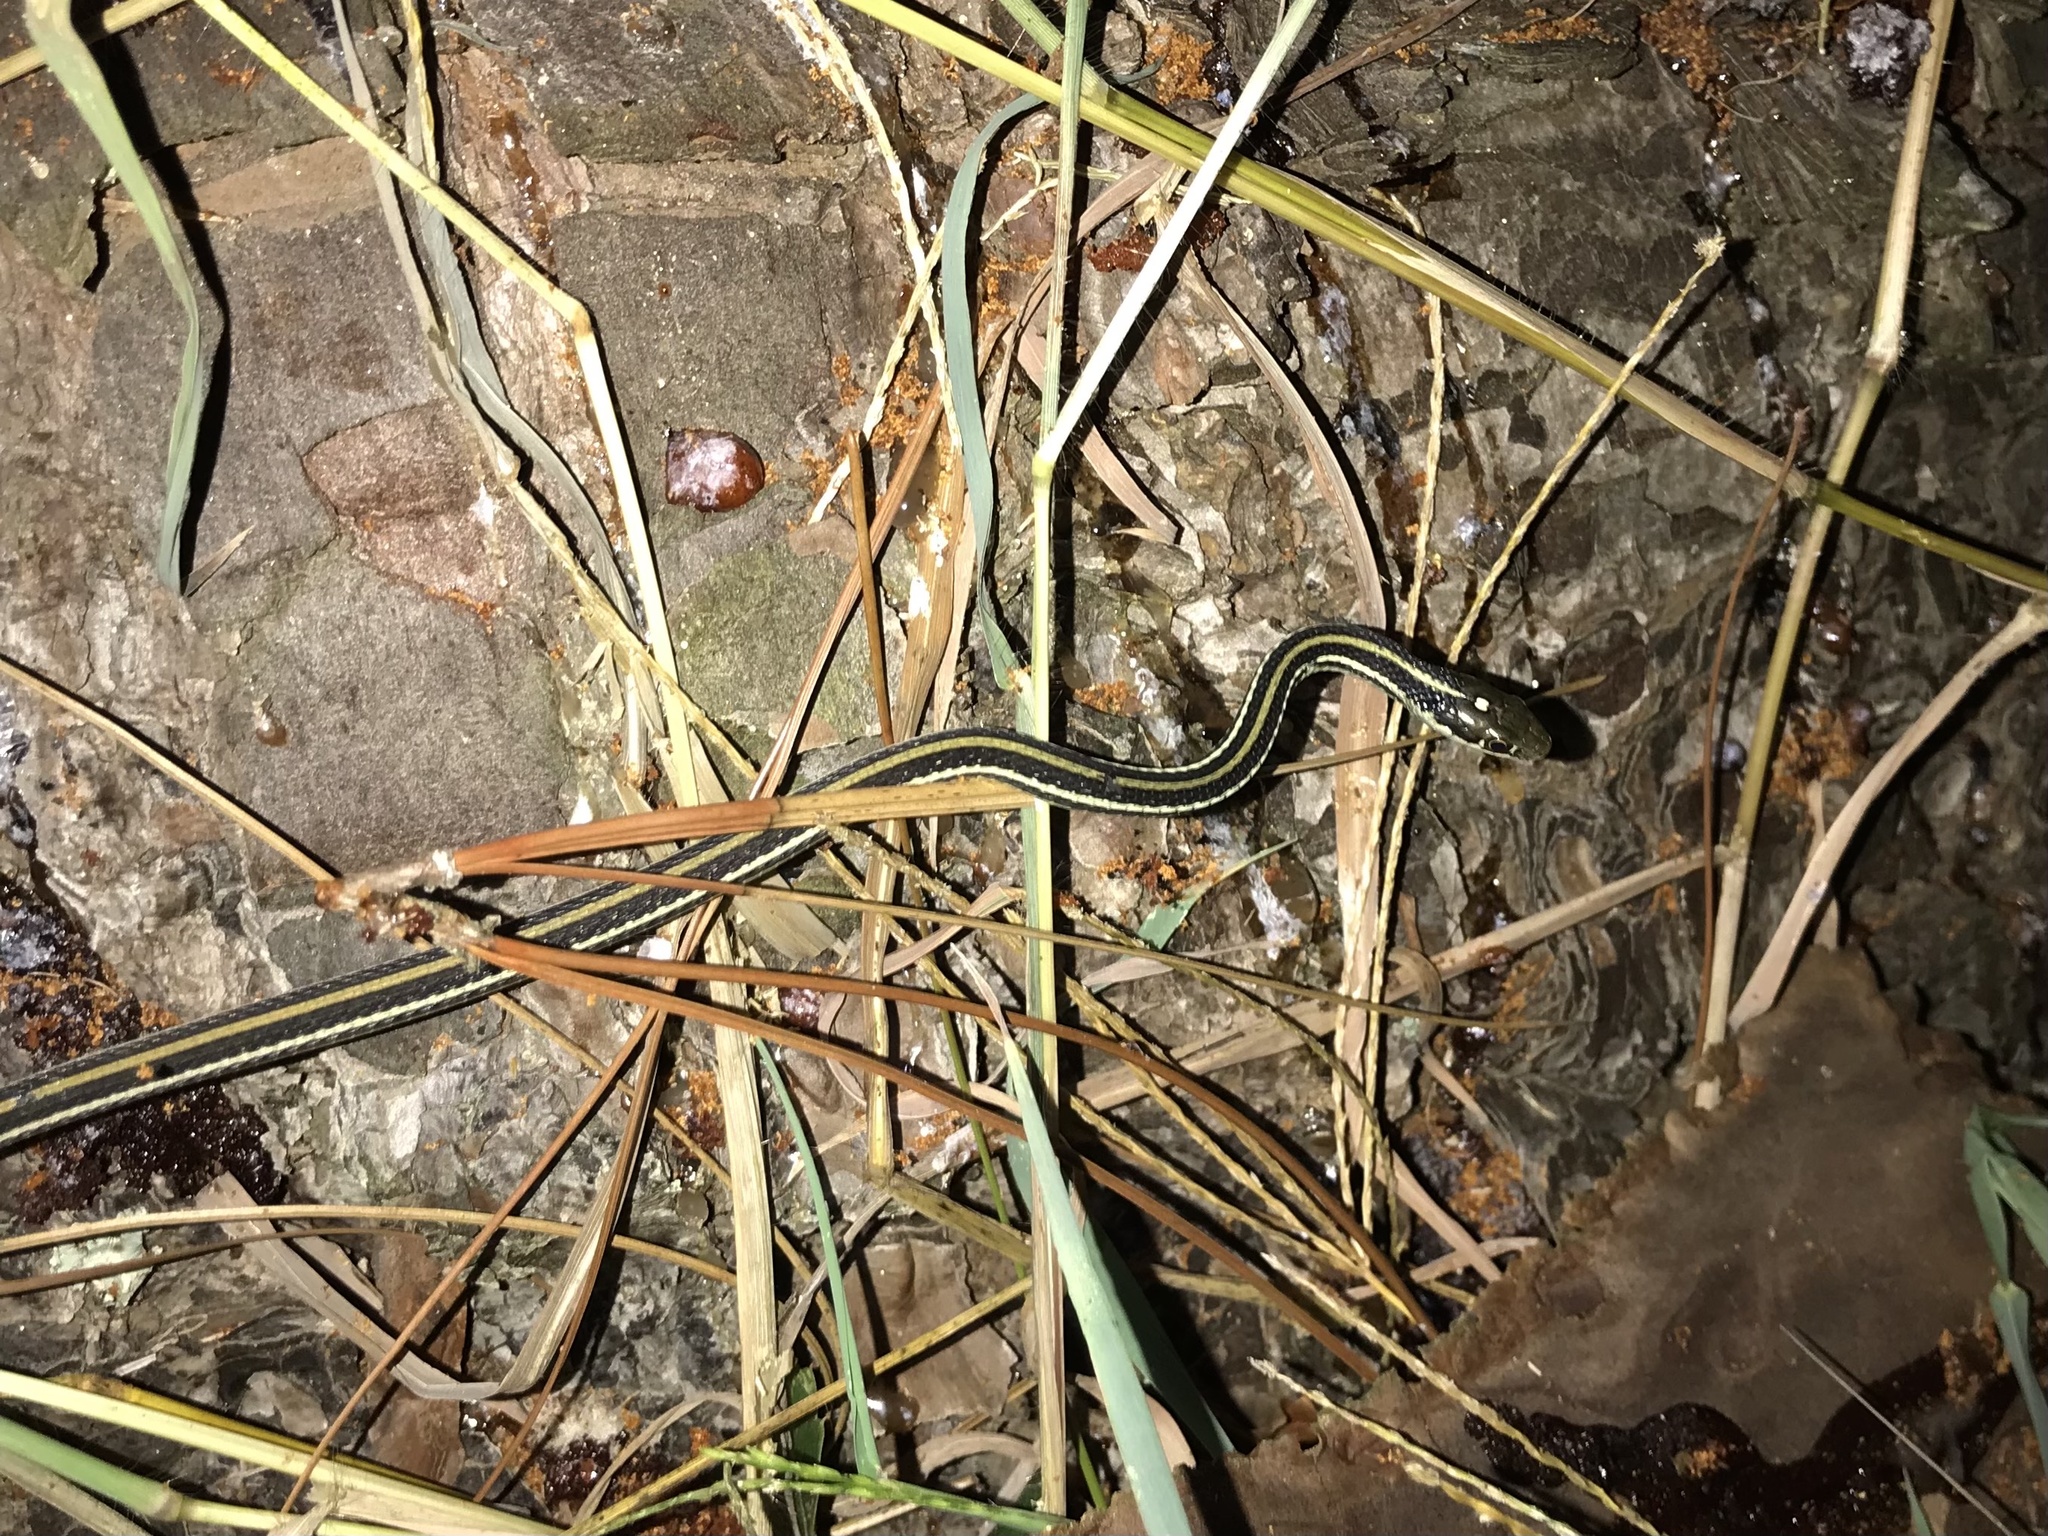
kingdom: Animalia
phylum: Chordata
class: Squamata
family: Colubridae
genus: Thamnophis
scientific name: Thamnophis proximus
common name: Western ribbon snake
